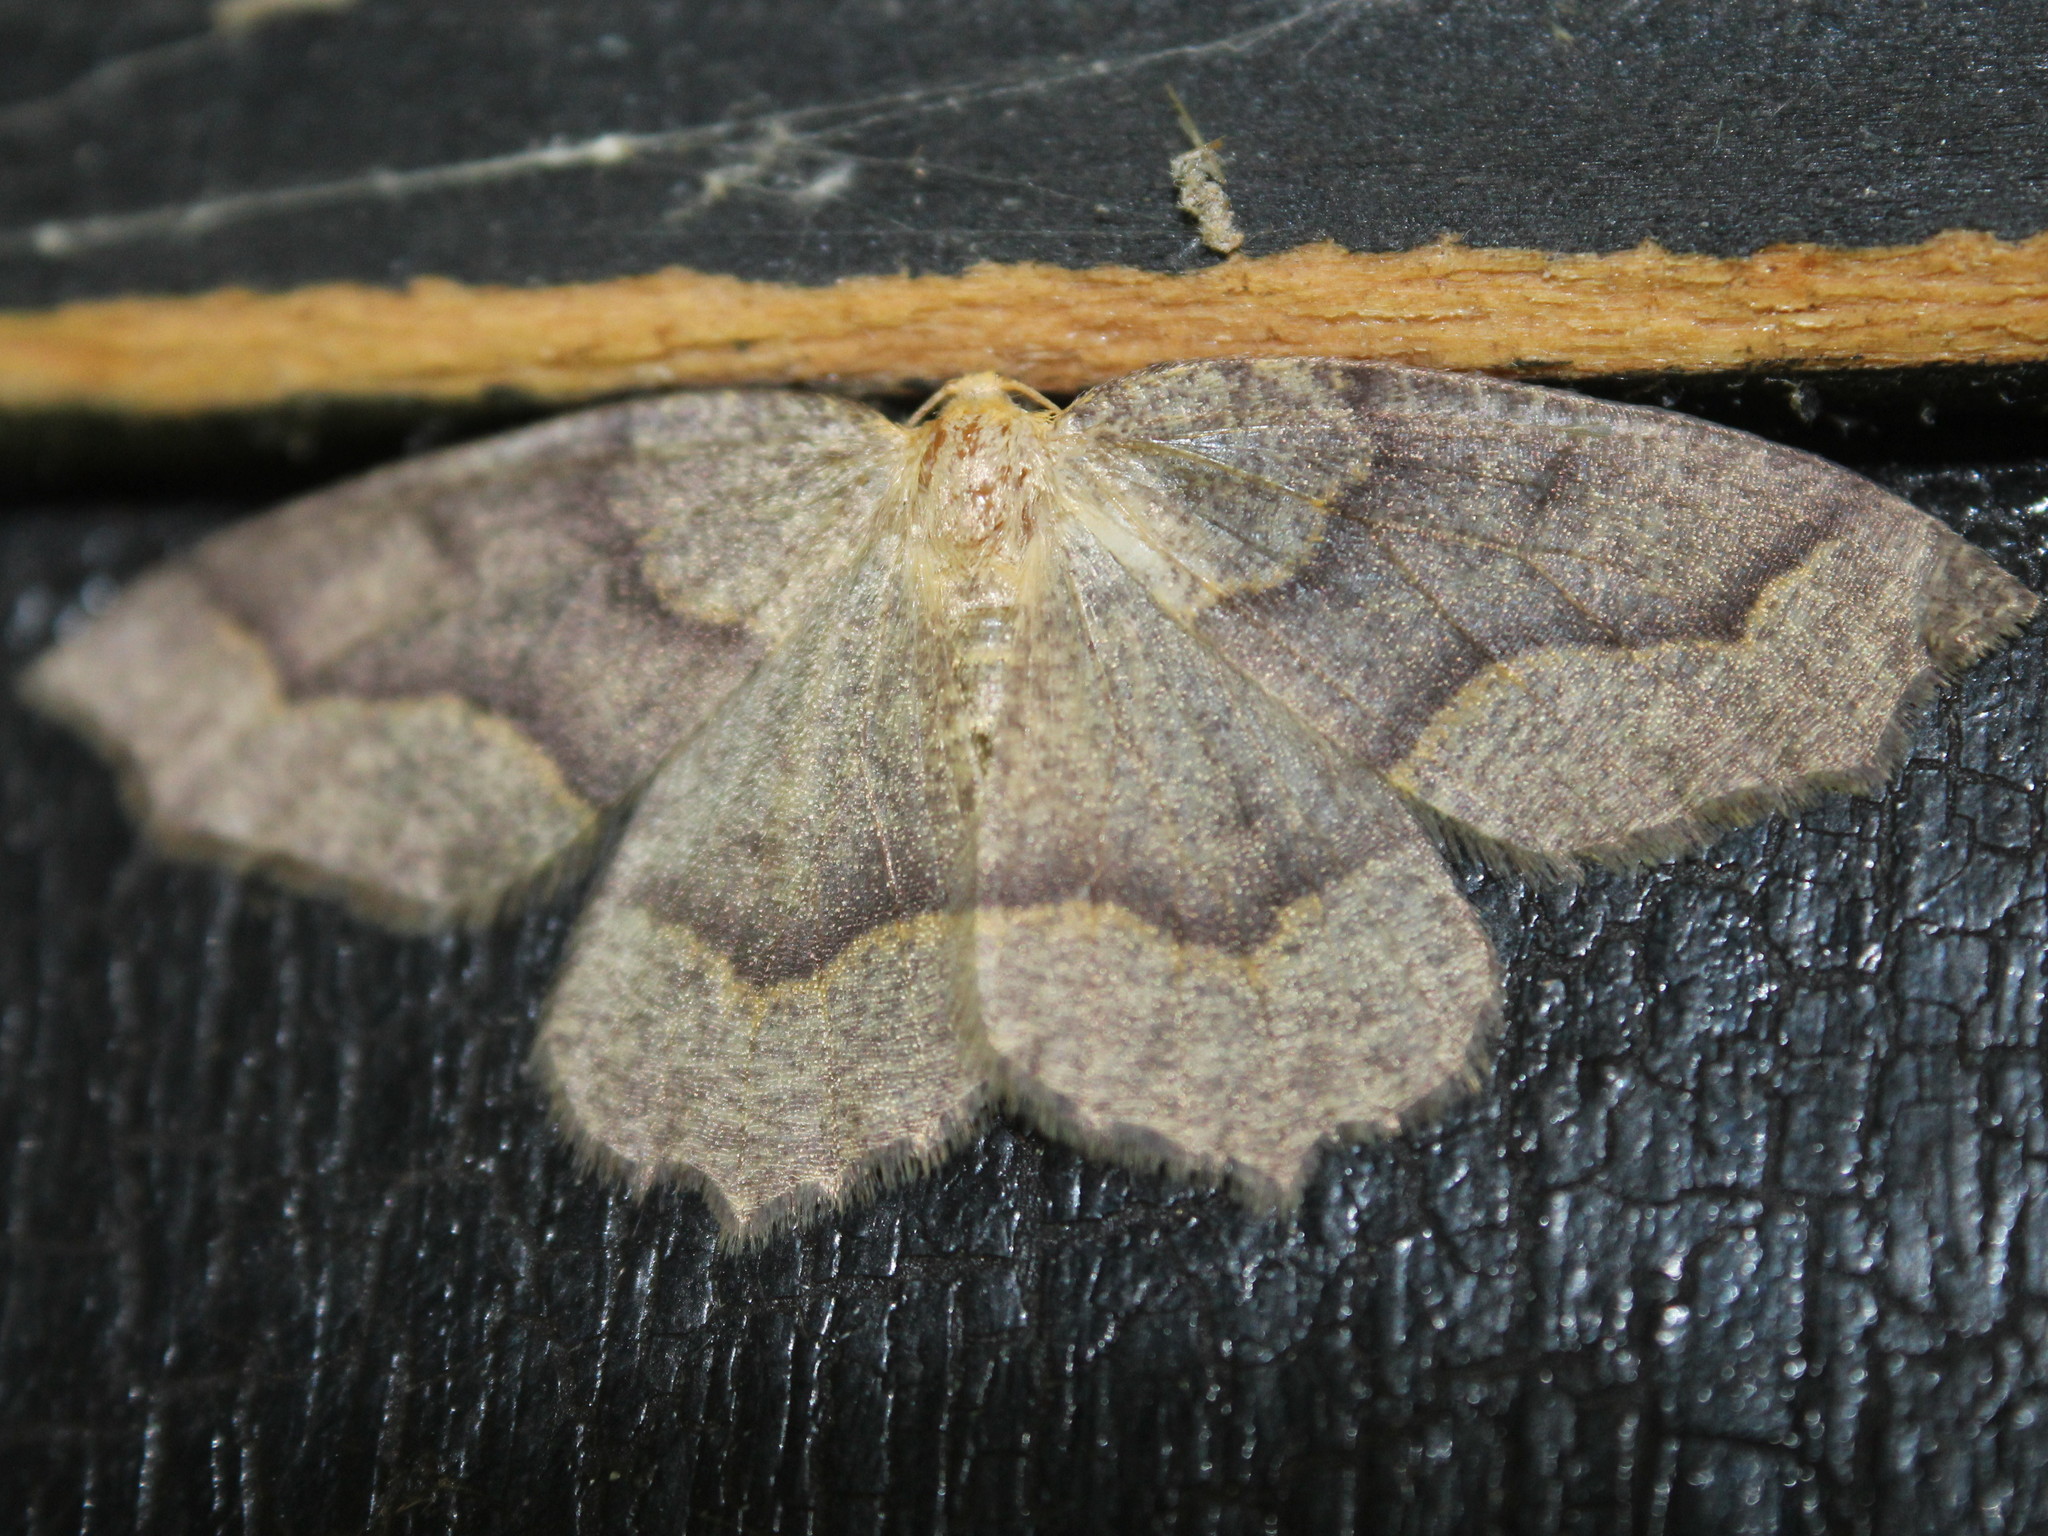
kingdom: Animalia
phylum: Arthropoda
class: Insecta
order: Lepidoptera
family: Geometridae
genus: Lambdina
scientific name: Lambdina fiscellaria
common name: Hemlock looper
